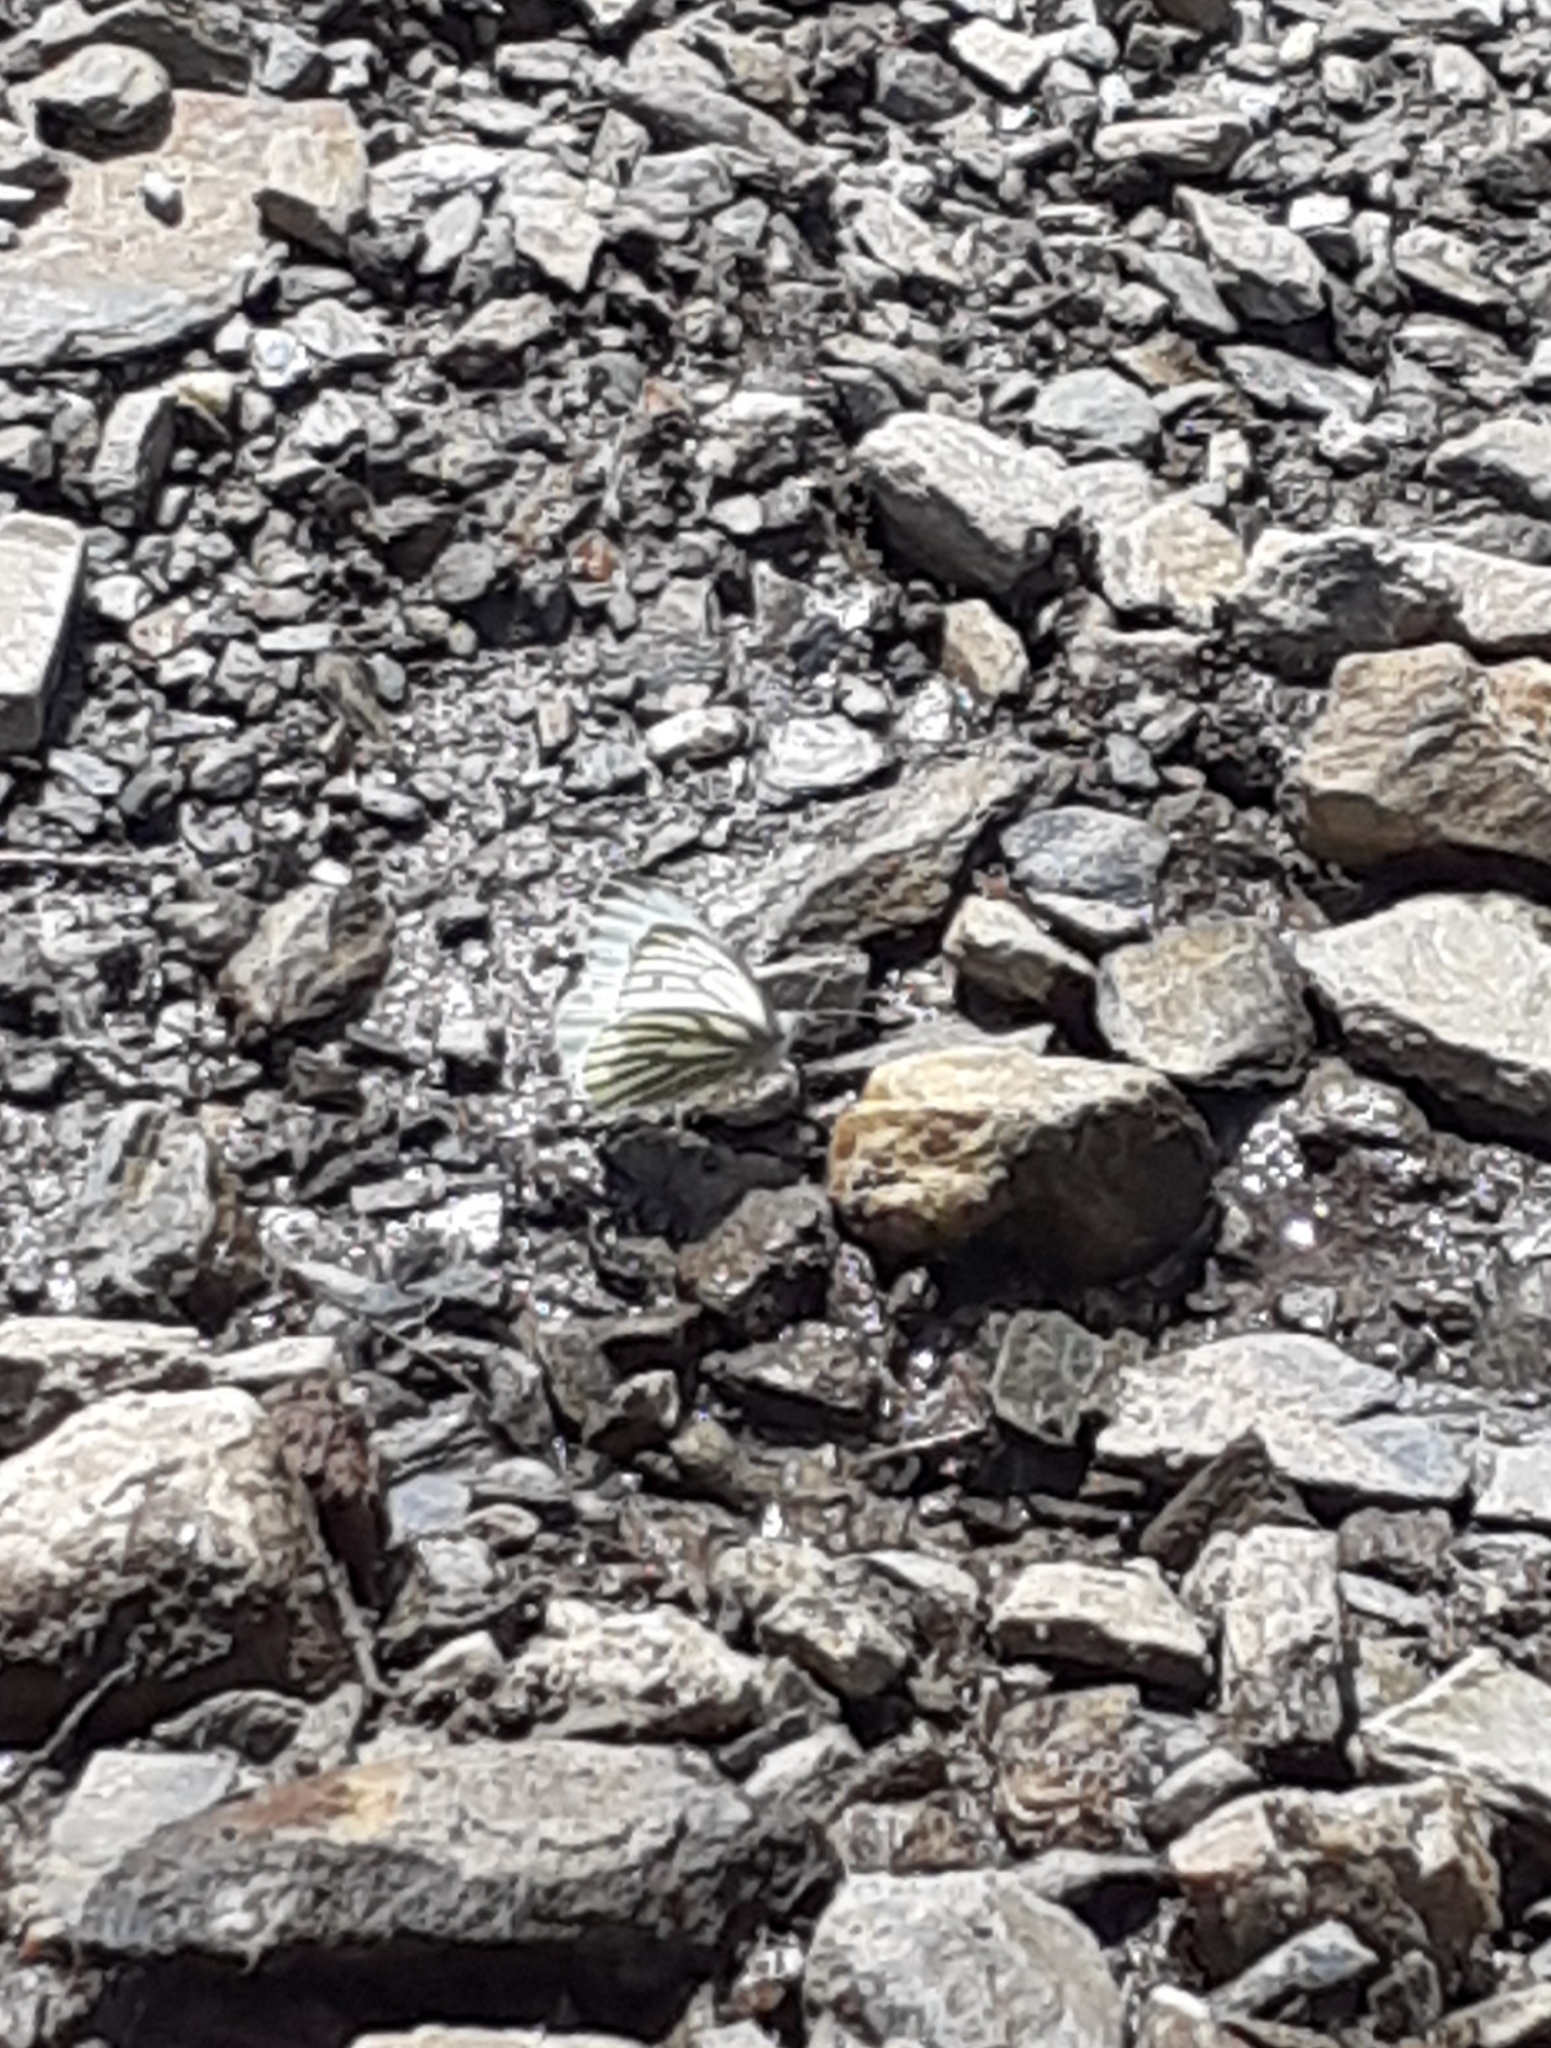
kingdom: Animalia
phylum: Arthropoda
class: Insecta
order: Lepidoptera
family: Pieridae
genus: Pieris
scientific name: Pieris napi
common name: Green-veined white
